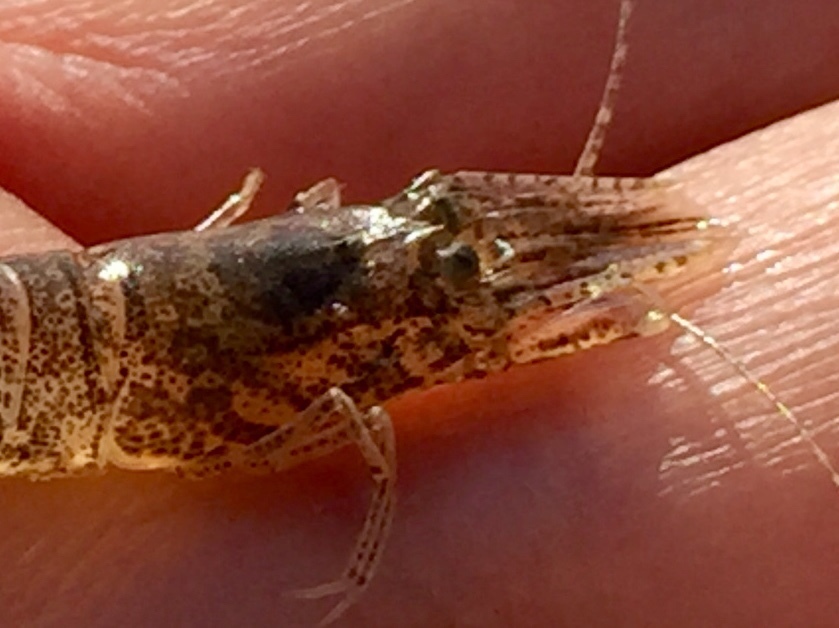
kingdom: Animalia
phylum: Arthropoda
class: Malacostraca
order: Decapoda
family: Crangonidae
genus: Crangon
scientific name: Crangon septemspinosa
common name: Bail shrimp
